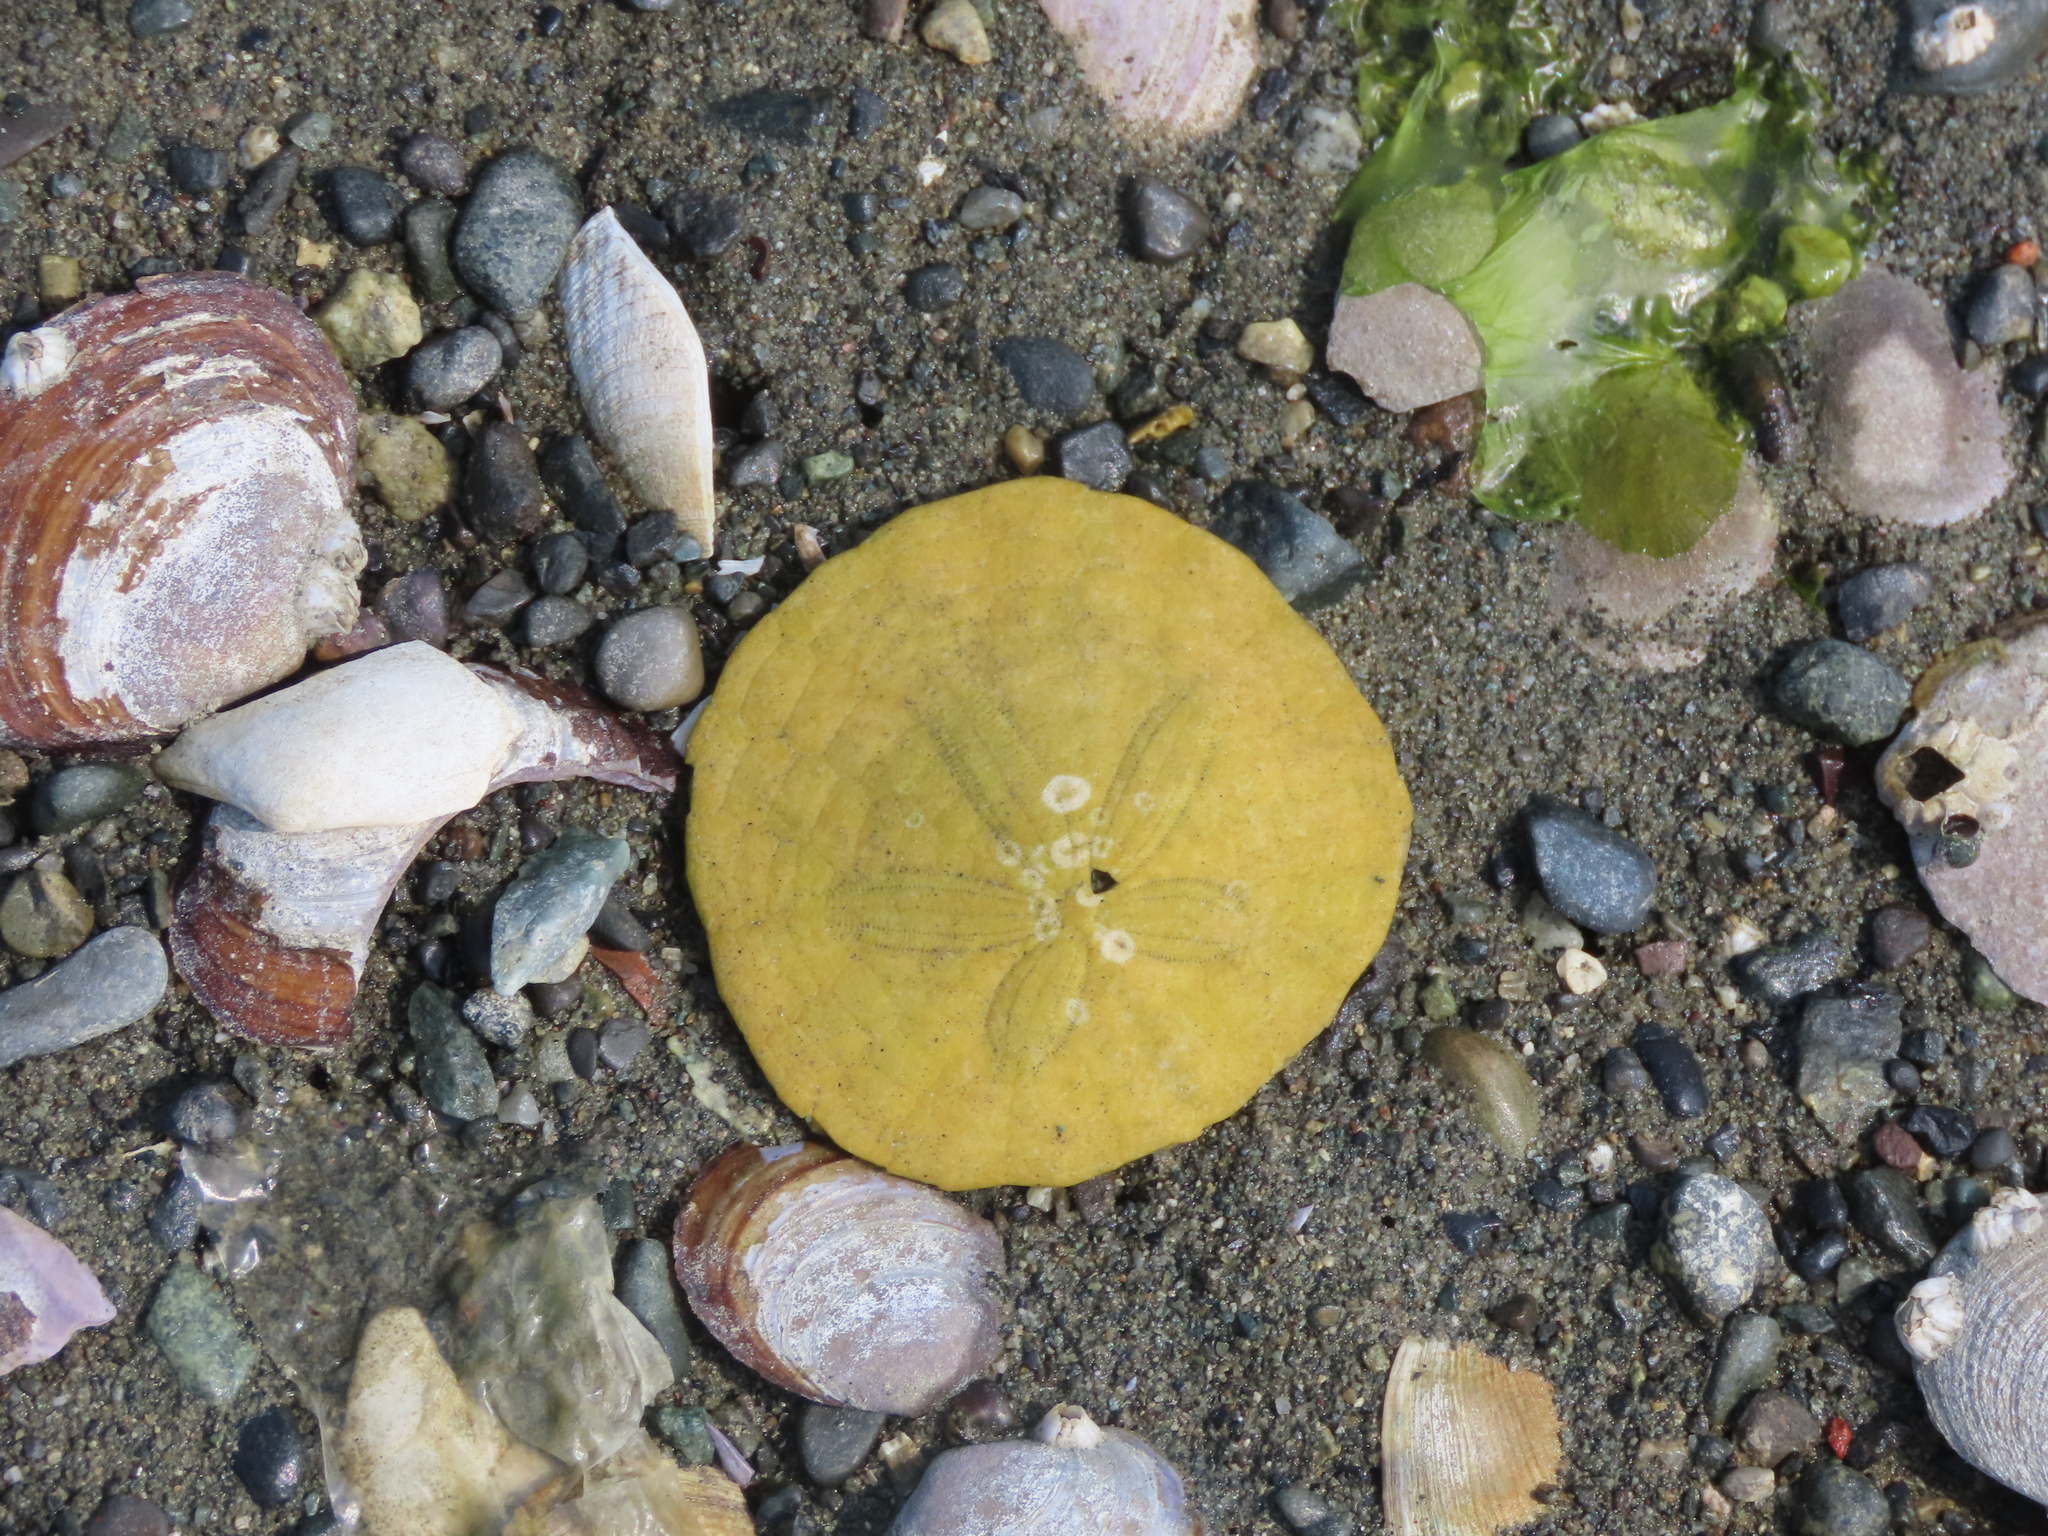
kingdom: Animalia
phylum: Echinodermata
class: Echinoidea
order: Echinolampadacea
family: Dendrasteridae
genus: Dendraster
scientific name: Dendraster excentricus
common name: Eccentric sand dollar sea urchin
